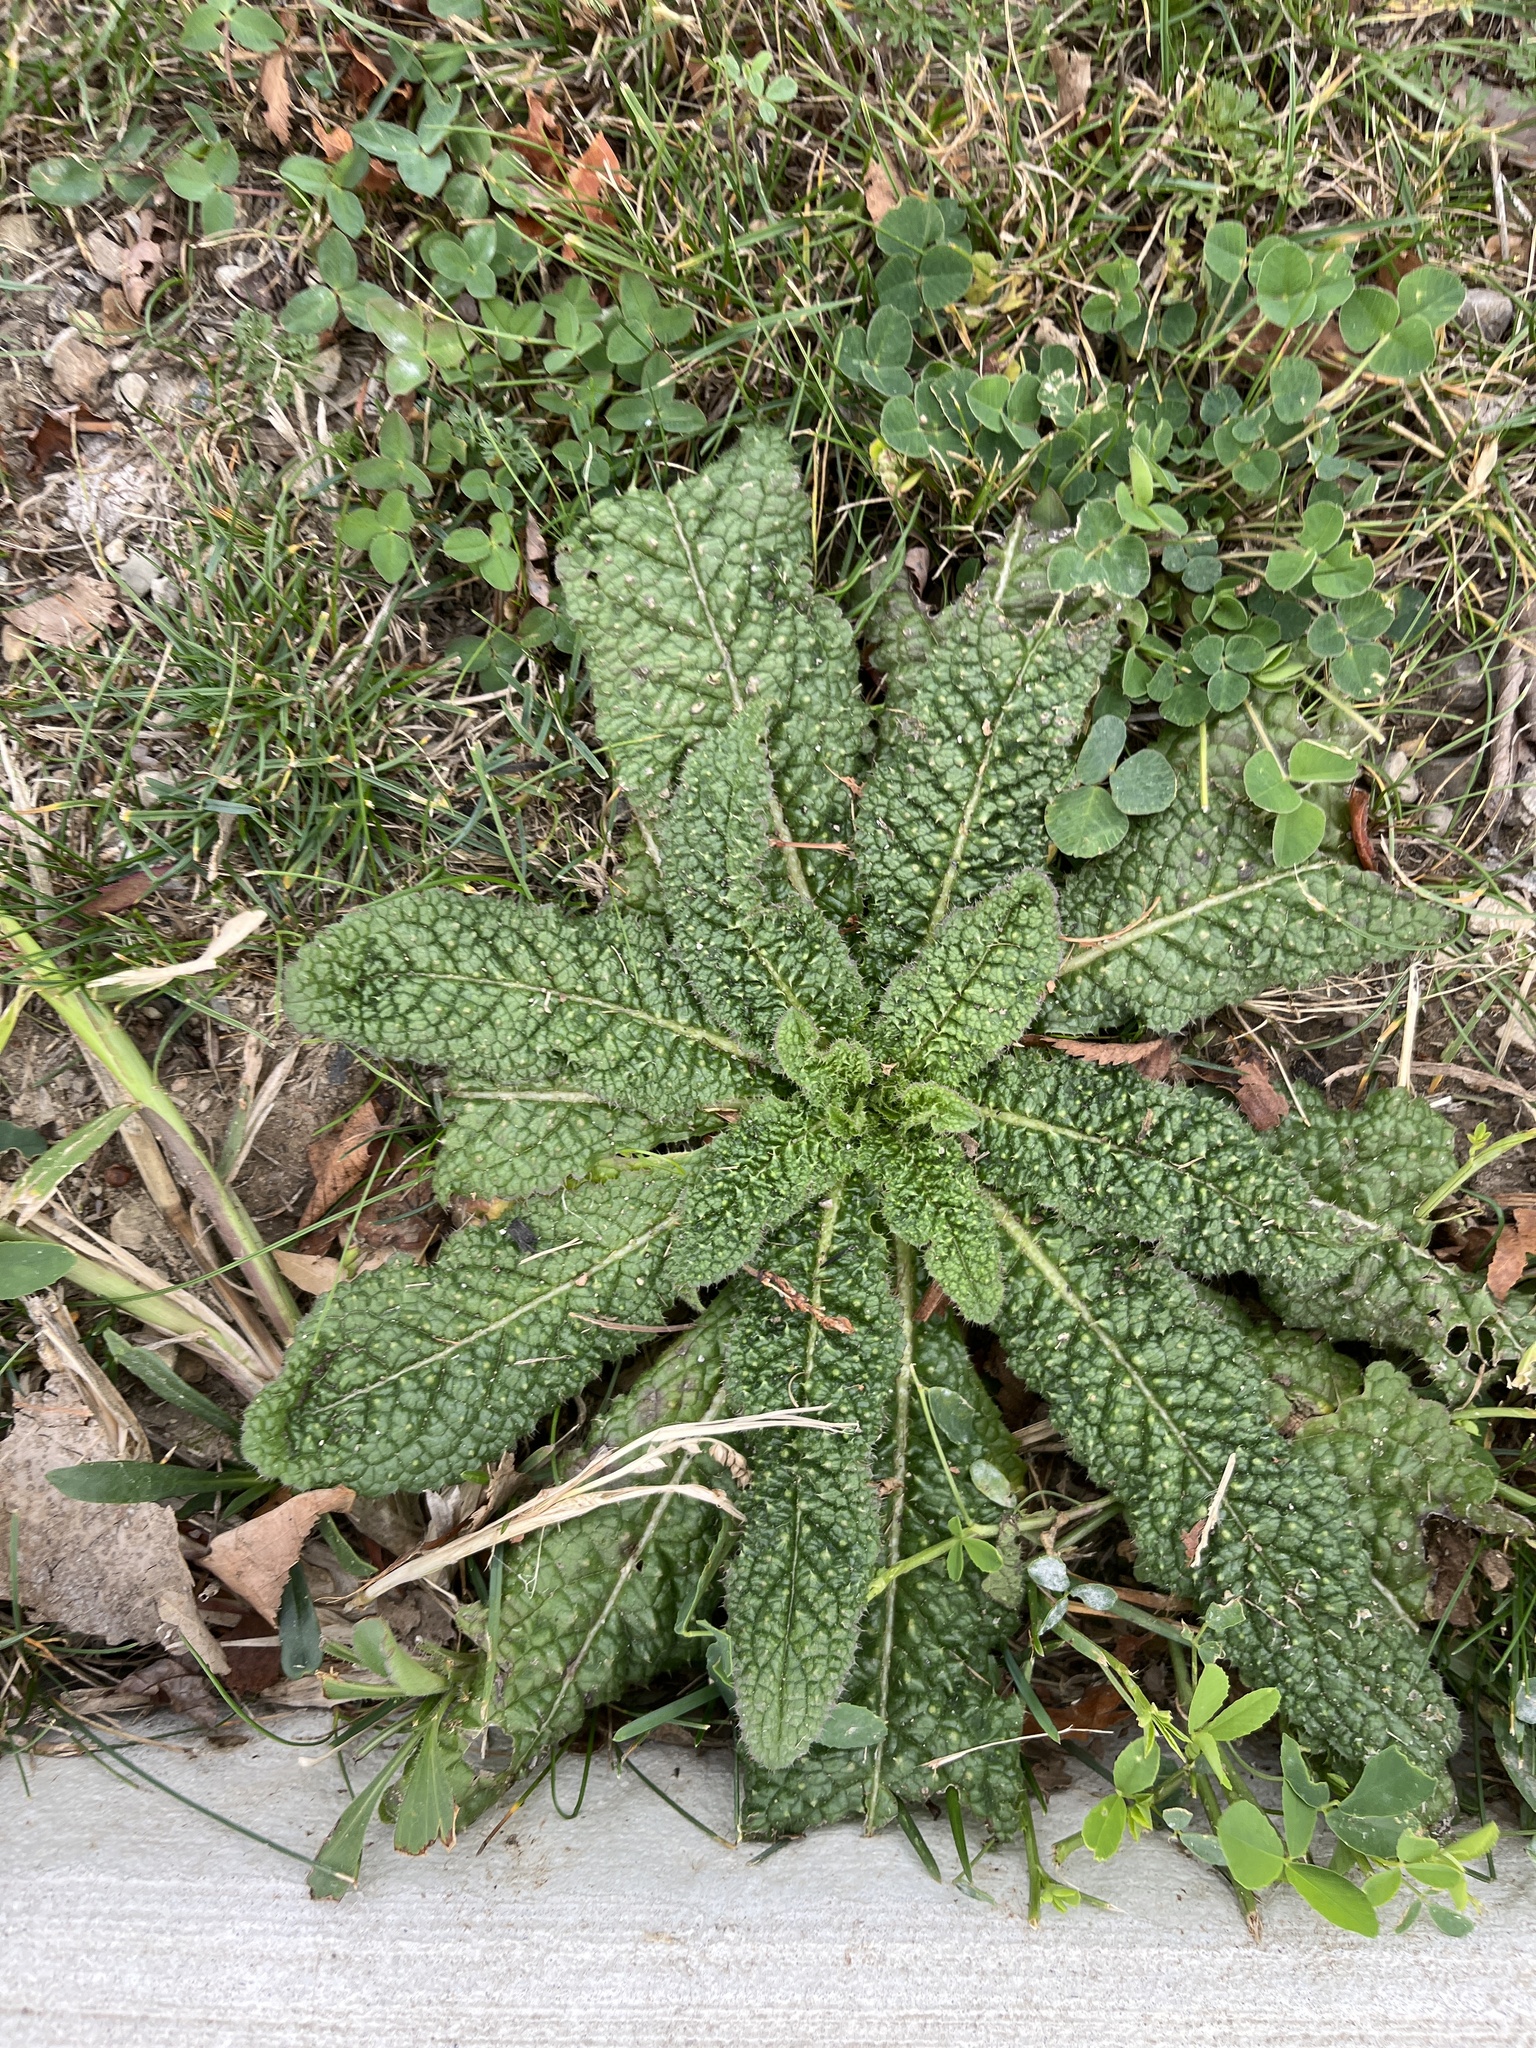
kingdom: Plantae
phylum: Tracheophyta
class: Magnoliopsida
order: Dipsacales
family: Caprifoliaceae
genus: Dipsacus
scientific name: Dipsacus fullonum
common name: Teasel
